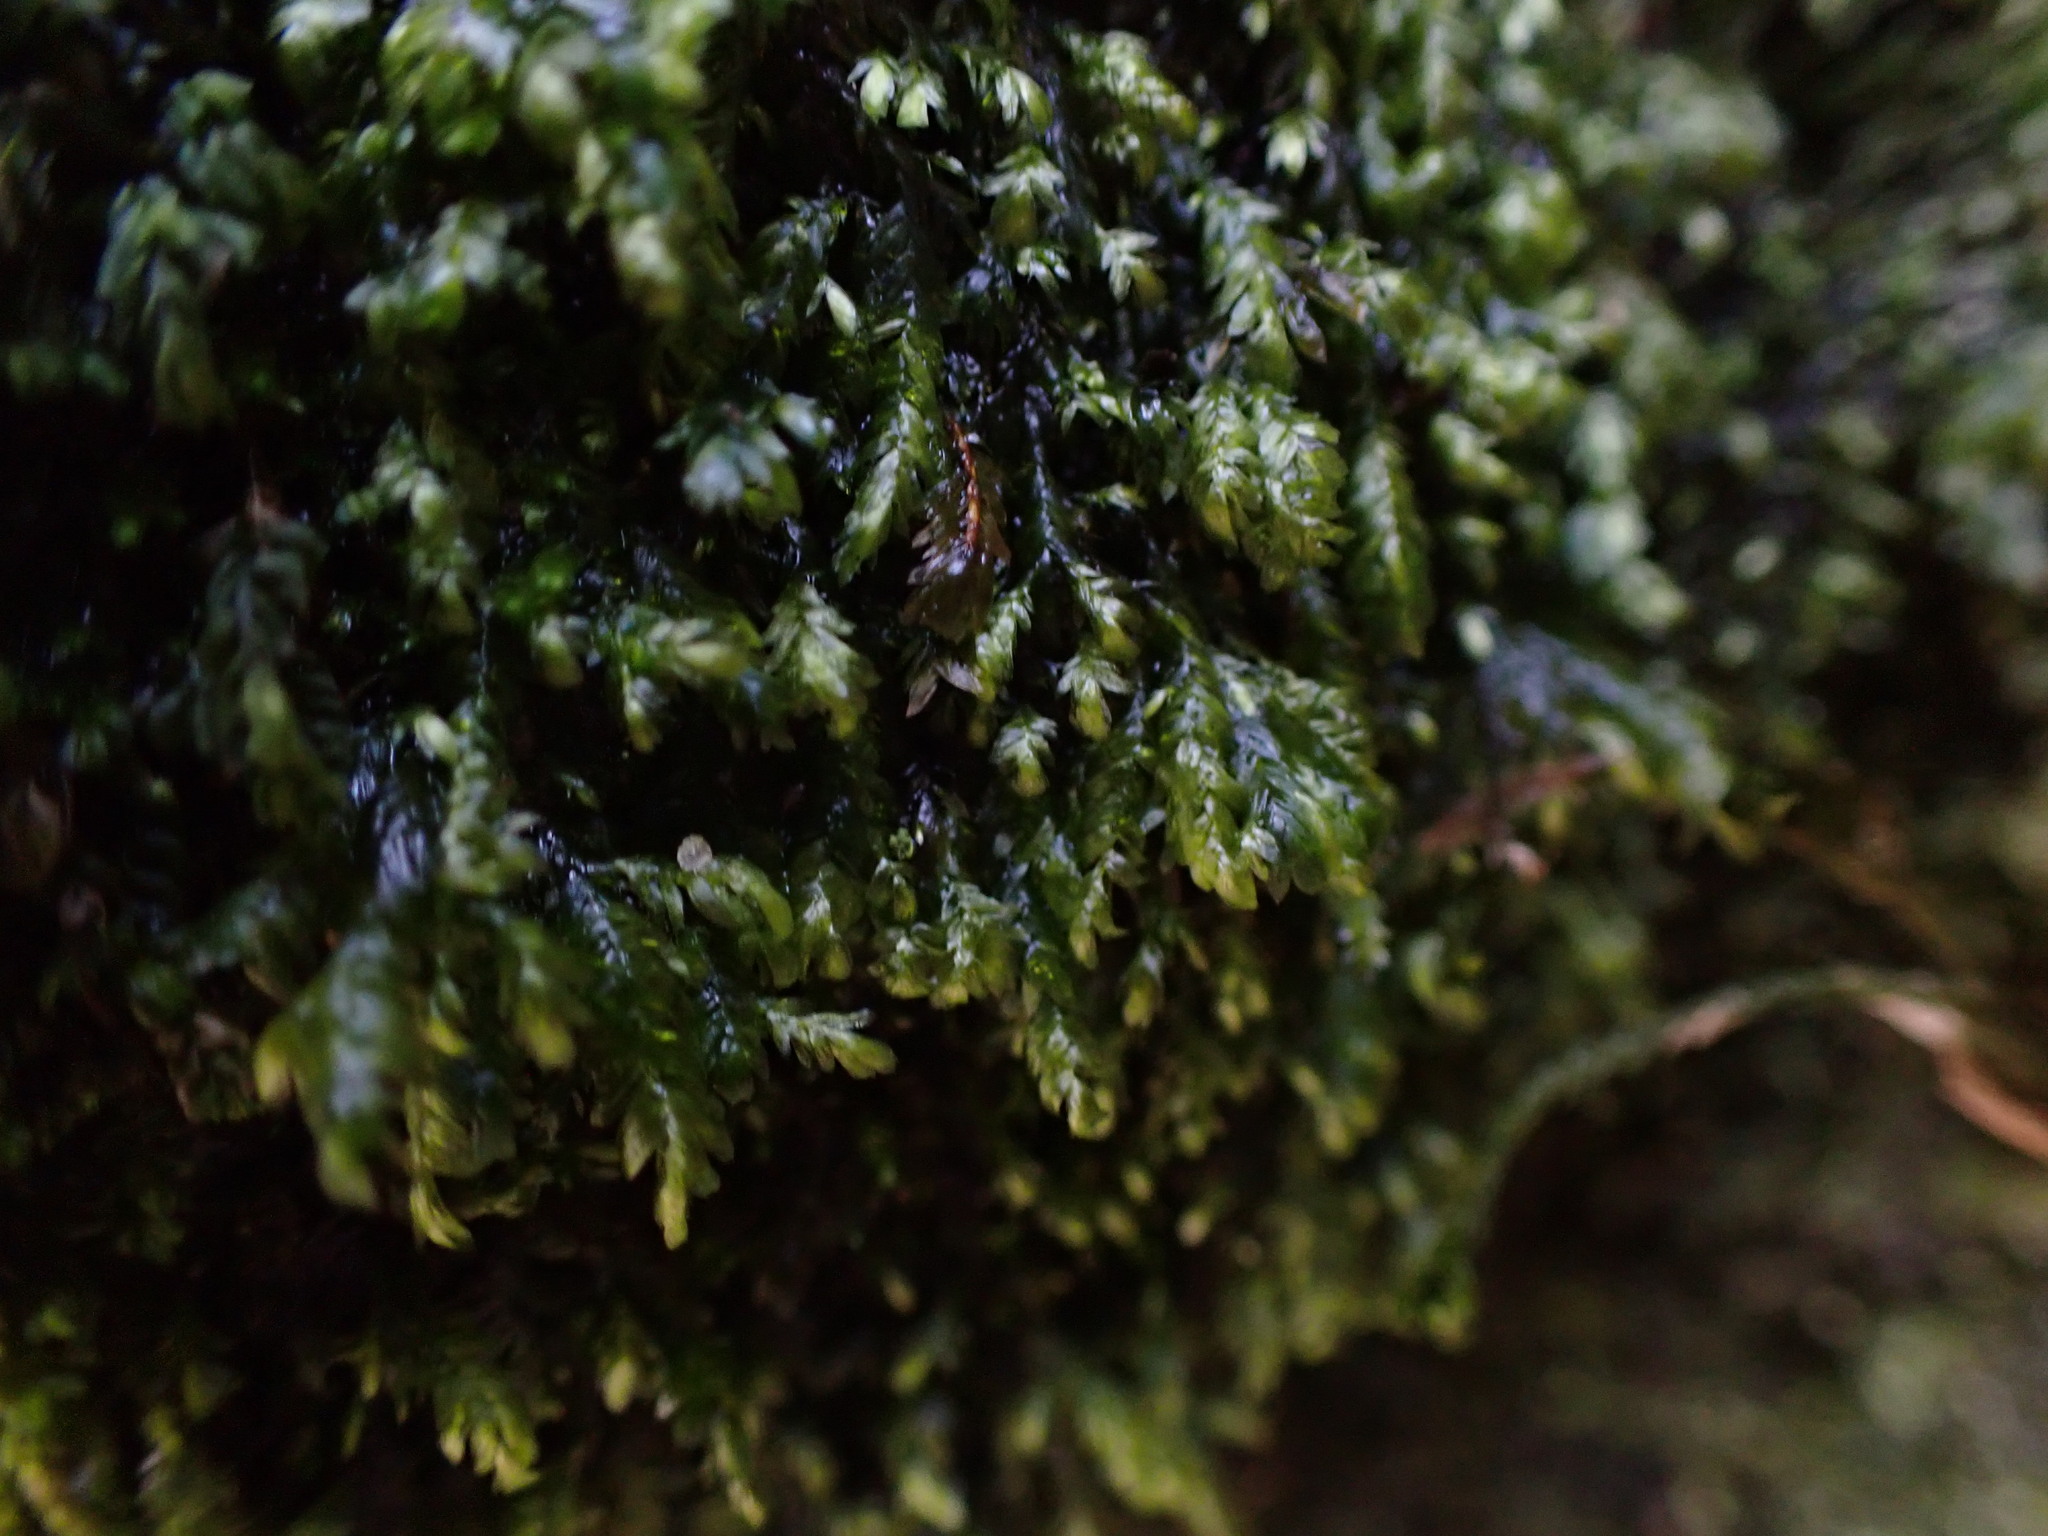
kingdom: Plantae
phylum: Bryophyta
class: Bryopsida
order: Hypnales
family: Neckeraceae
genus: Dannorrisia
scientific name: Dannorrisia bigelovii
